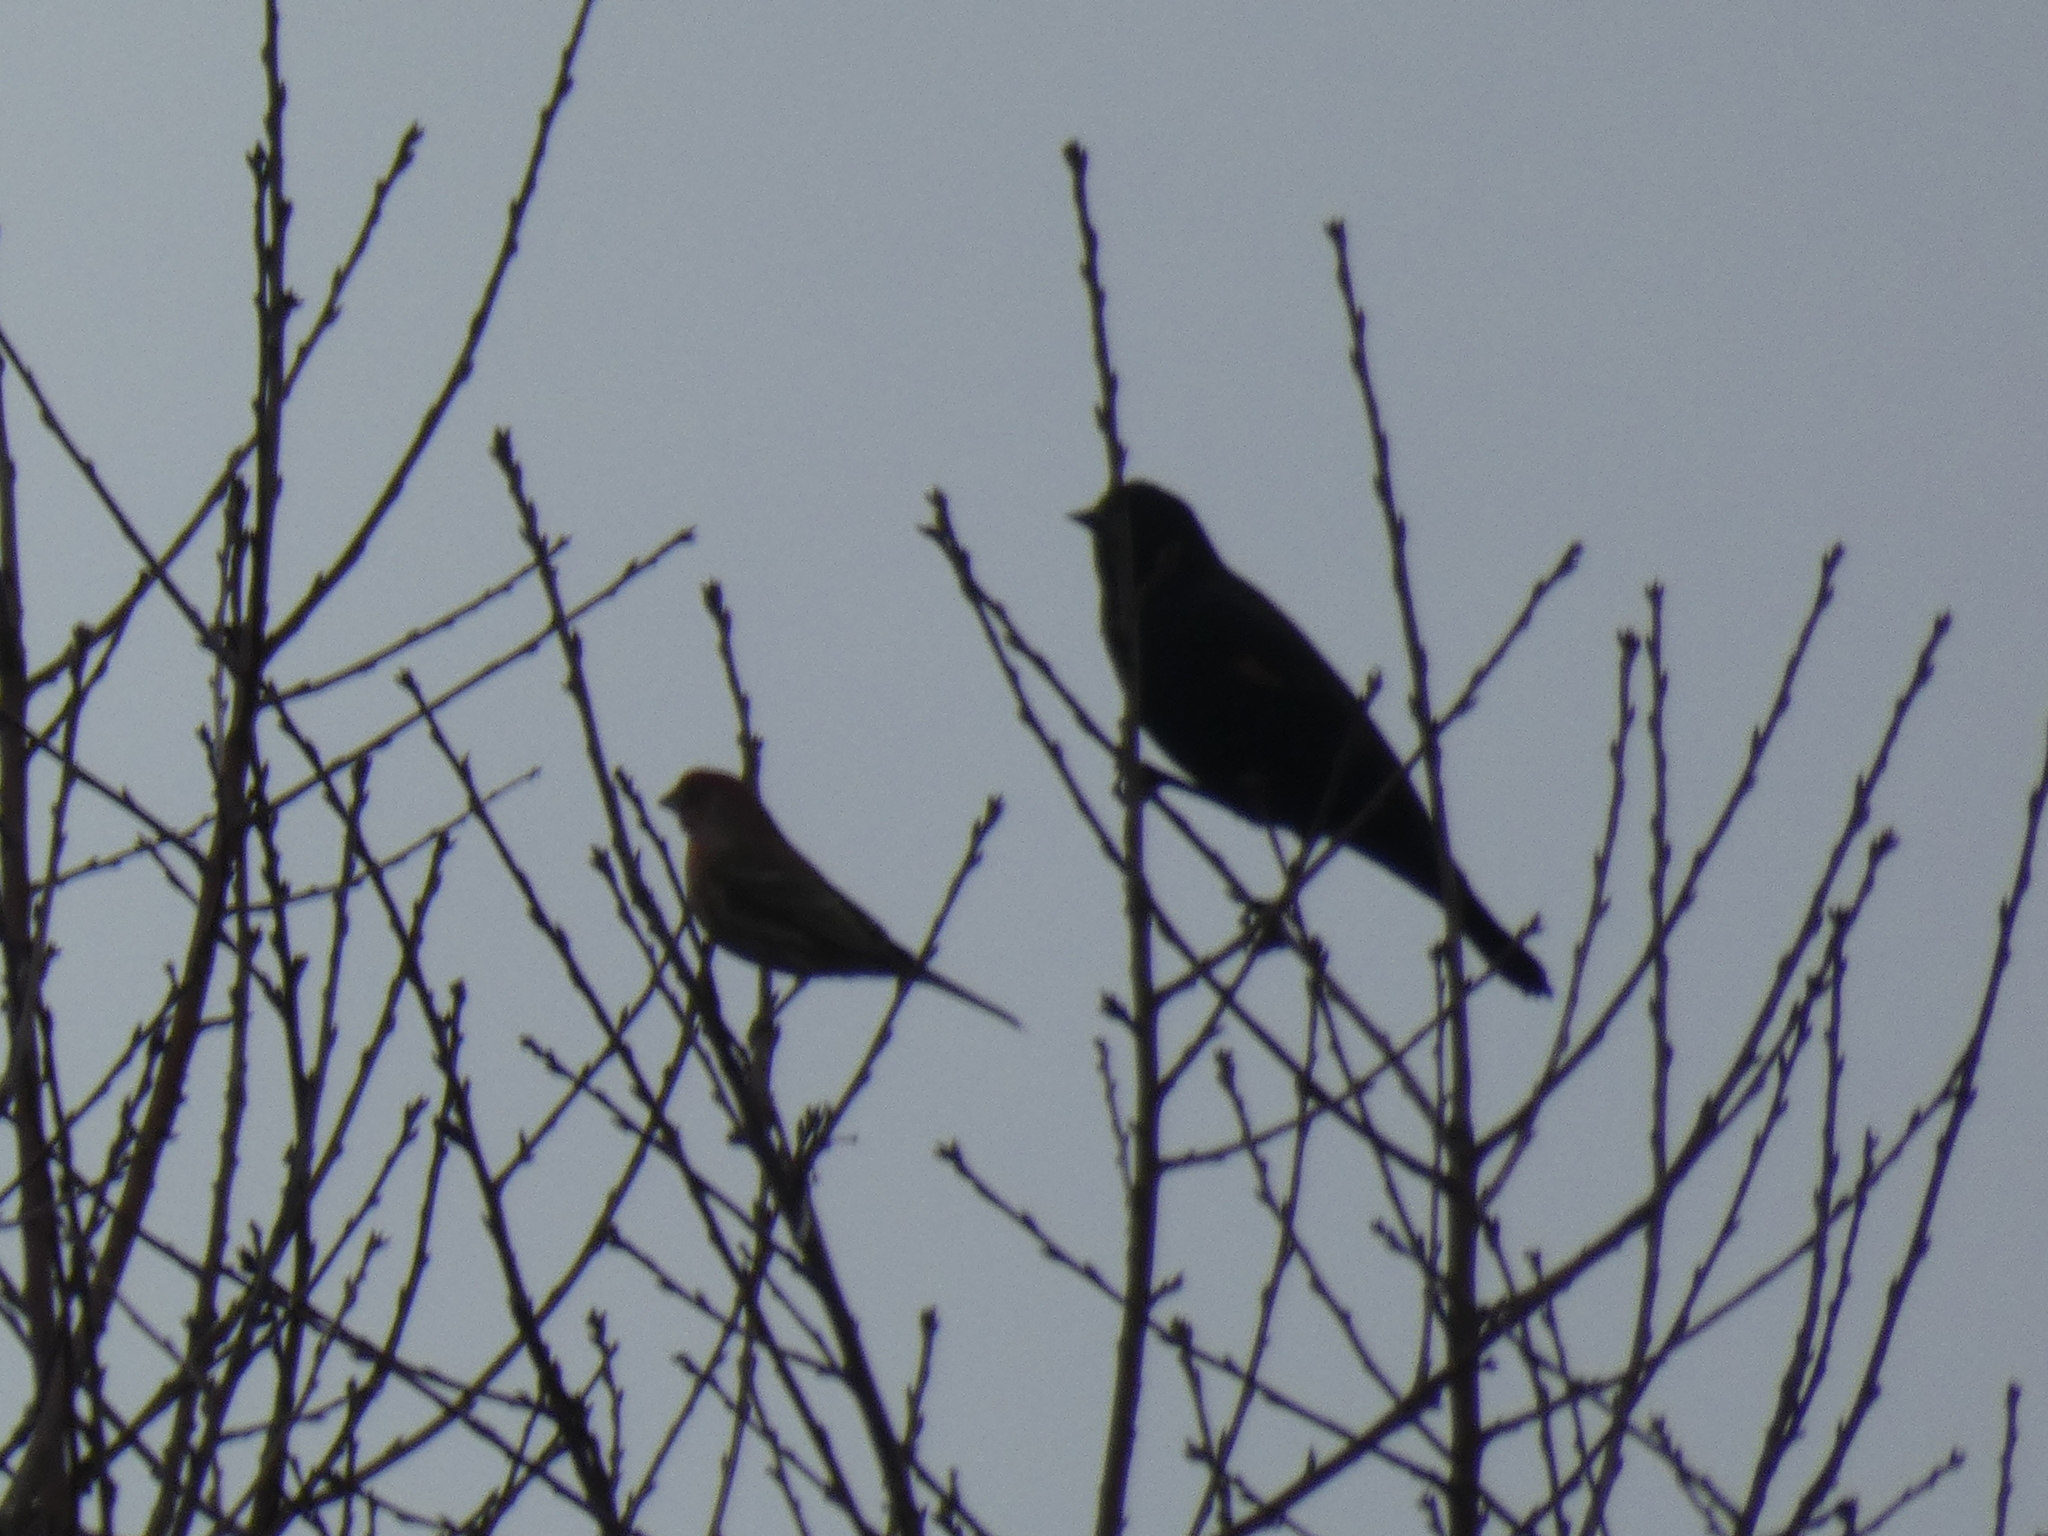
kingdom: Animalia
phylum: Chordata
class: Aves
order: Passeriformes
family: Icteridae
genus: Agelaius
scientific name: Agelaius phoeniceus
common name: Red-winged blackbird
